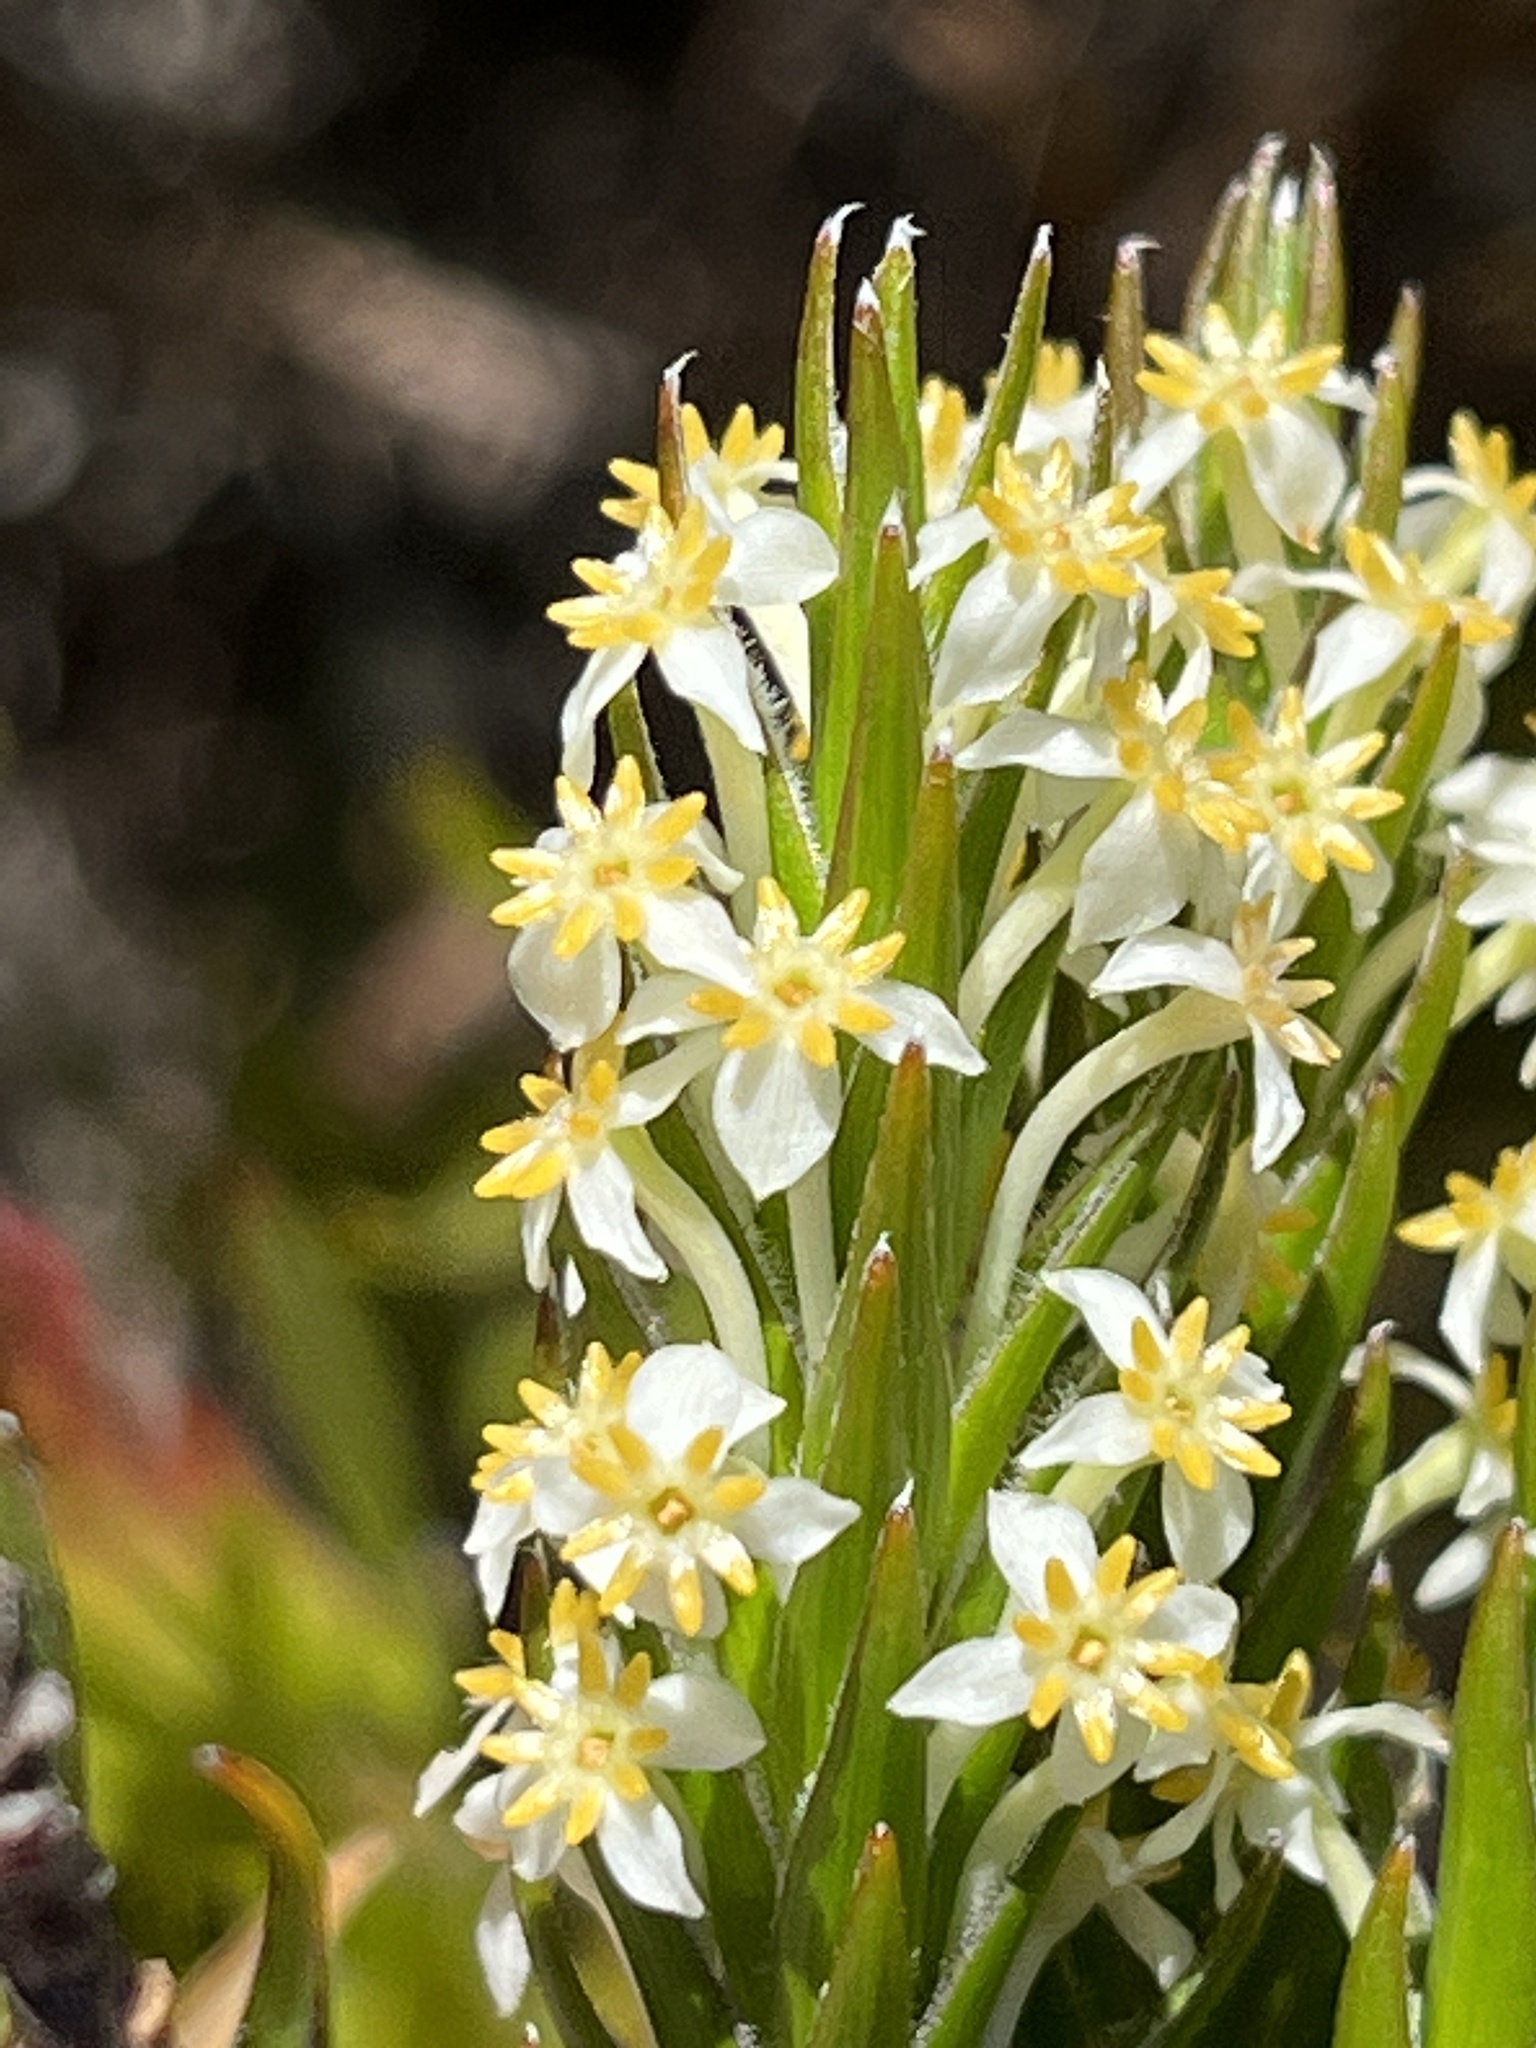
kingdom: Plantae
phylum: Tracheophyta
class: Magnoliopsida
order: Malvales
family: Thymelaeaceae
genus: Struthiola
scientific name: Struthiola ciliata
